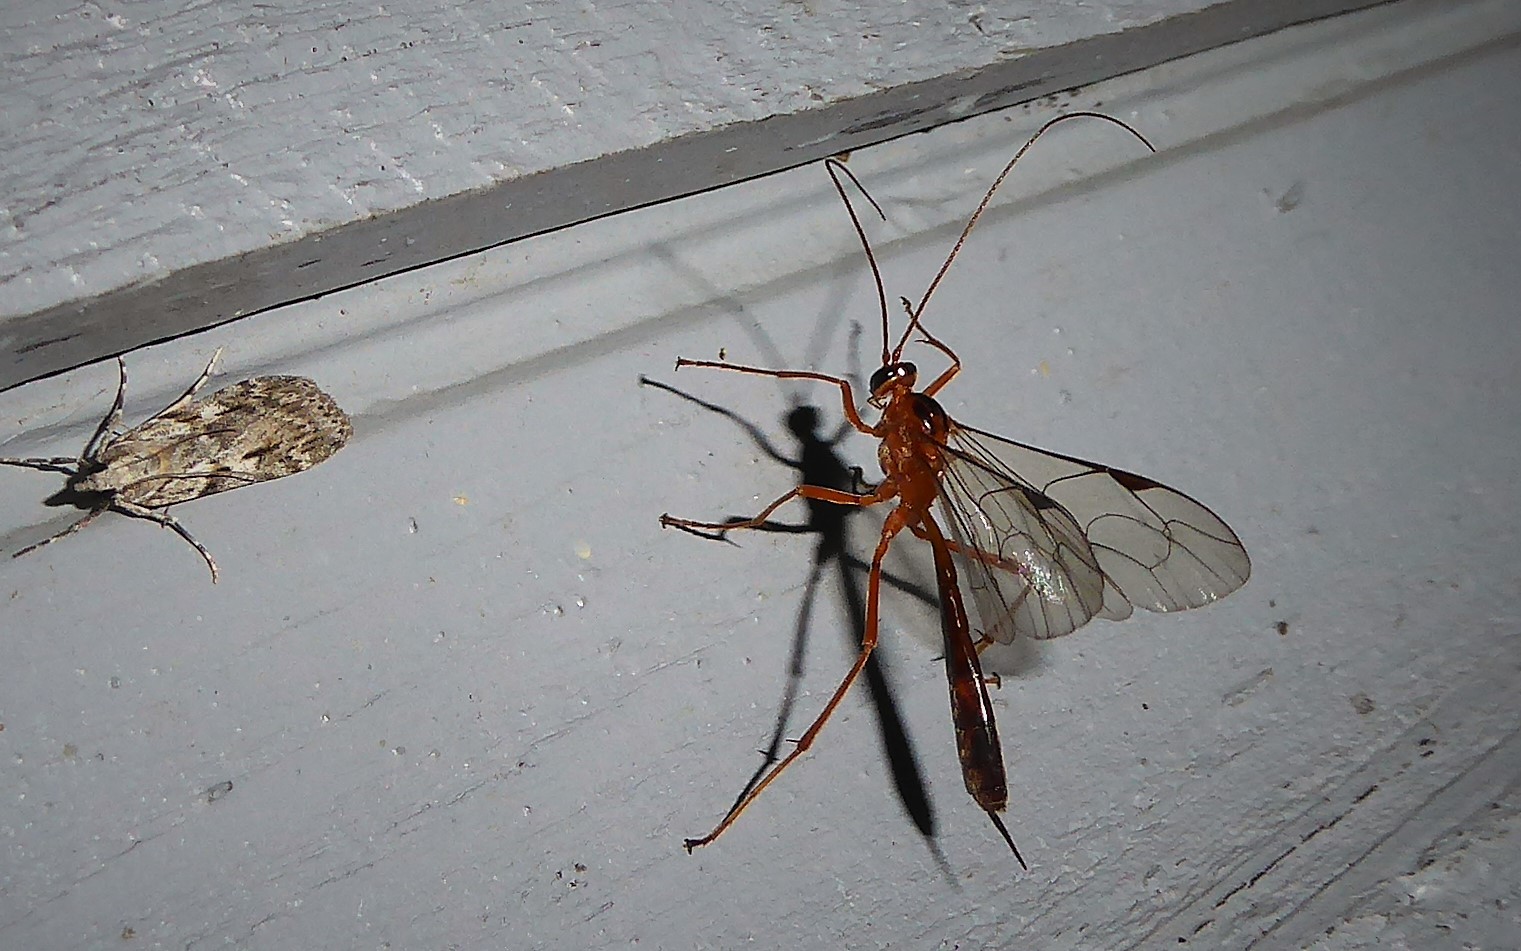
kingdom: Animalia
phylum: Arthropoda
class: Insecta
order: Hymenoptera
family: Ichneumonidae
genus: Netelia
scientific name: Netelia ephippiata
